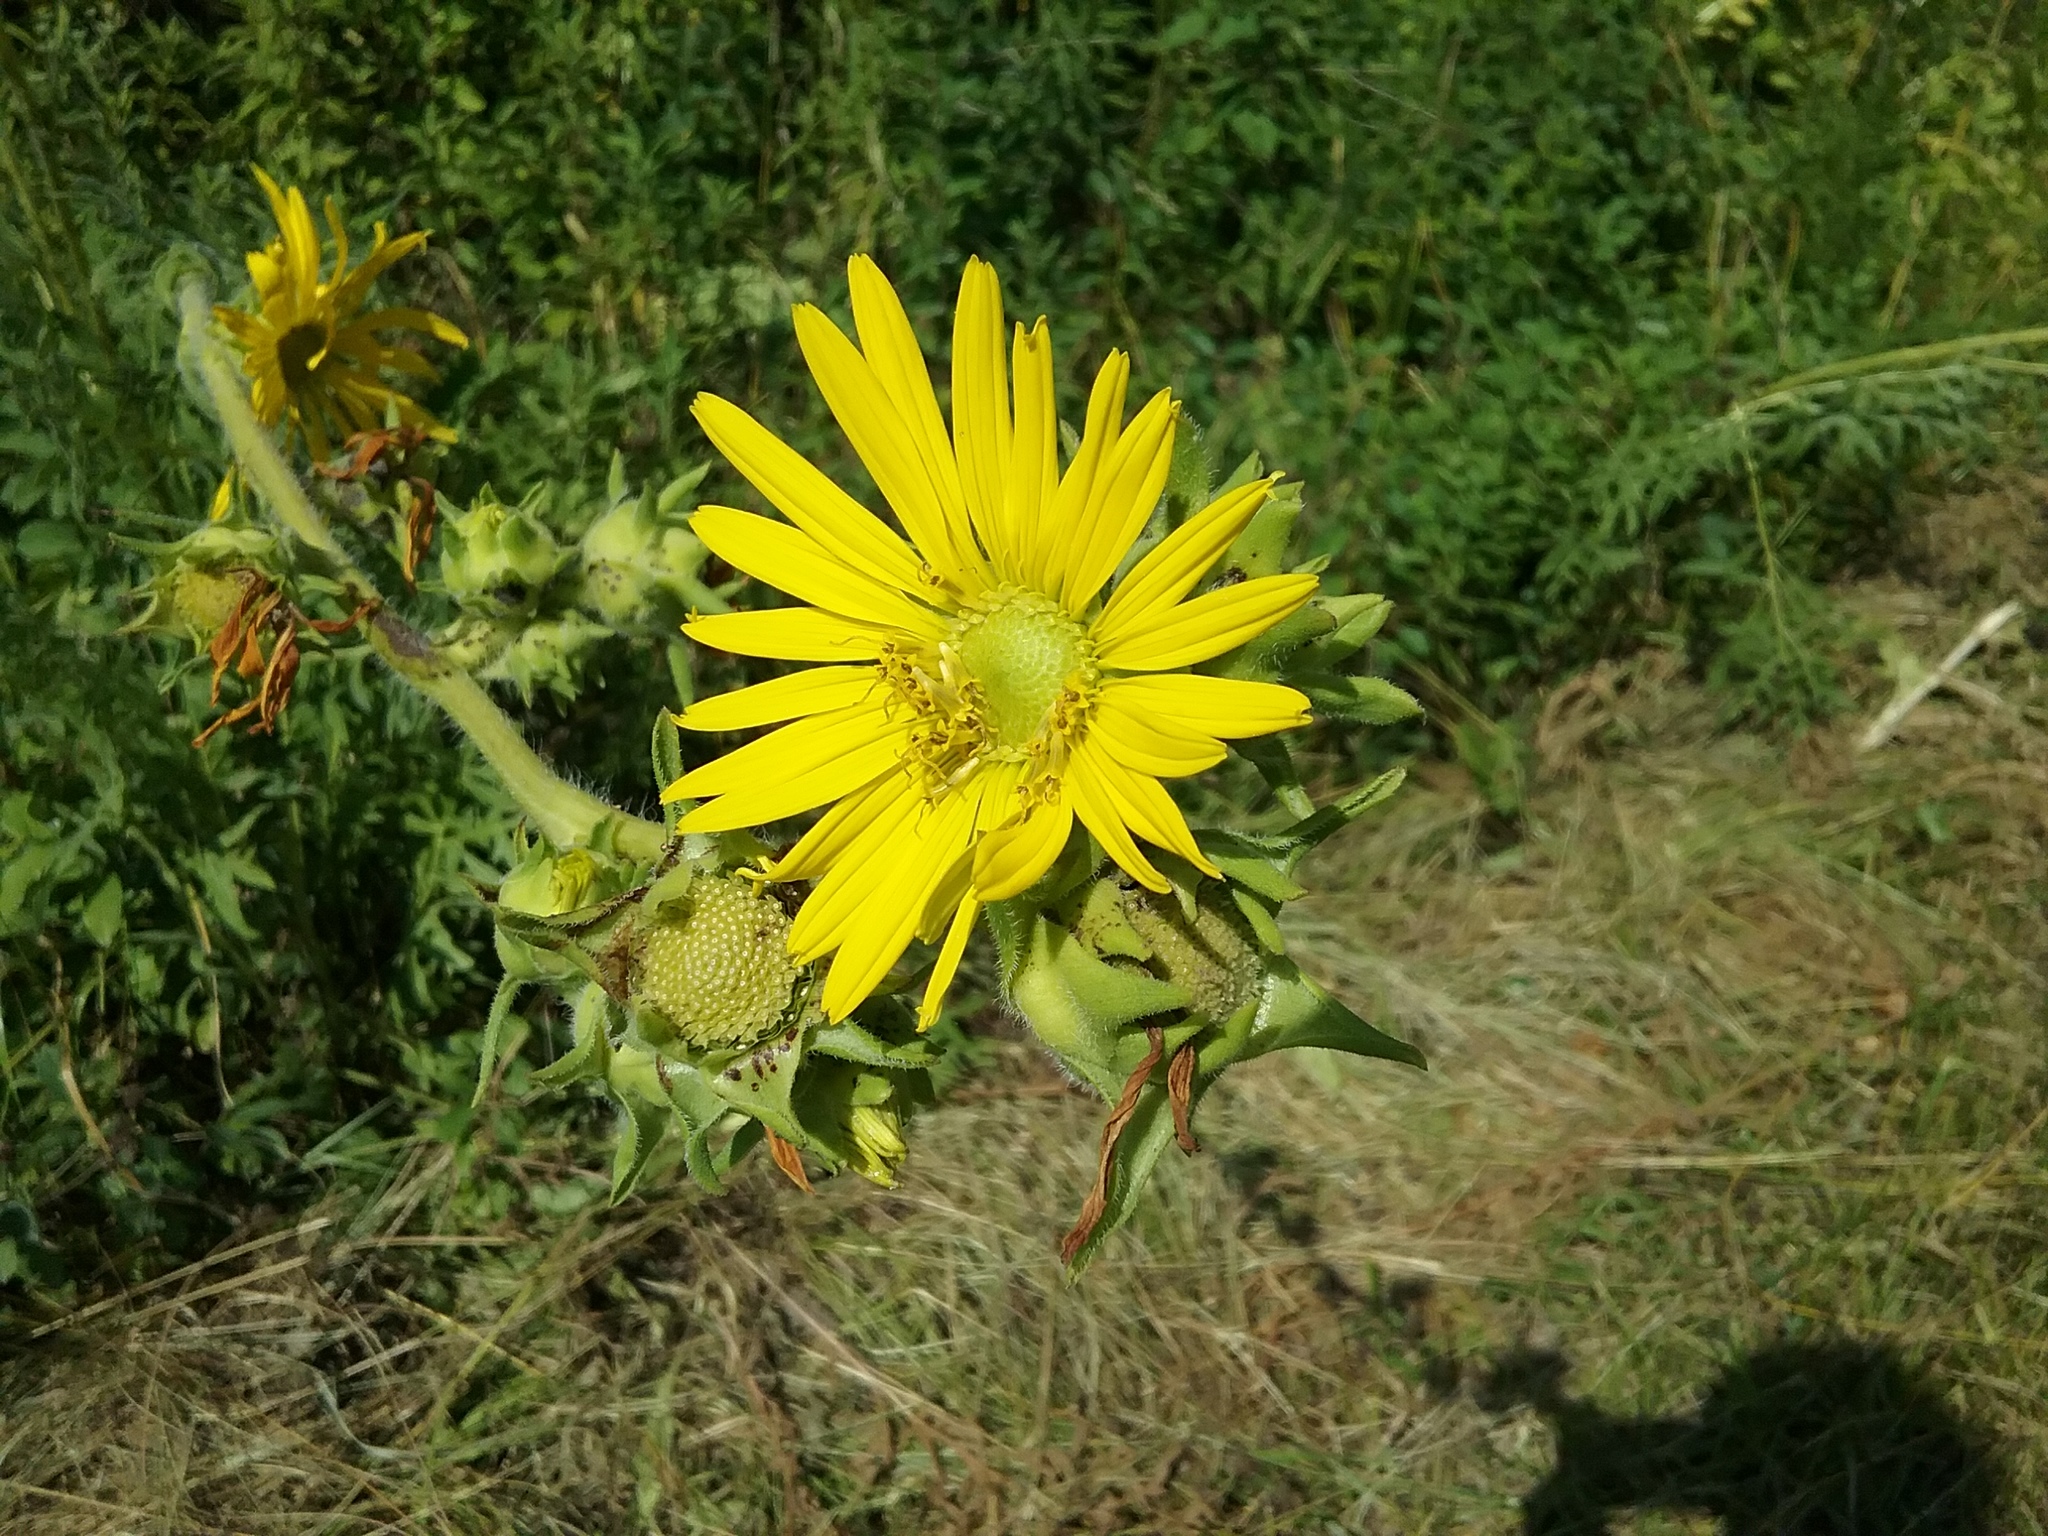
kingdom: Plantae
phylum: Tracheophyta
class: Magnoliopsida
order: Asterales
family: Asteraceae
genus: Silphium
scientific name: Silphium laciniatum
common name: Polarplant
